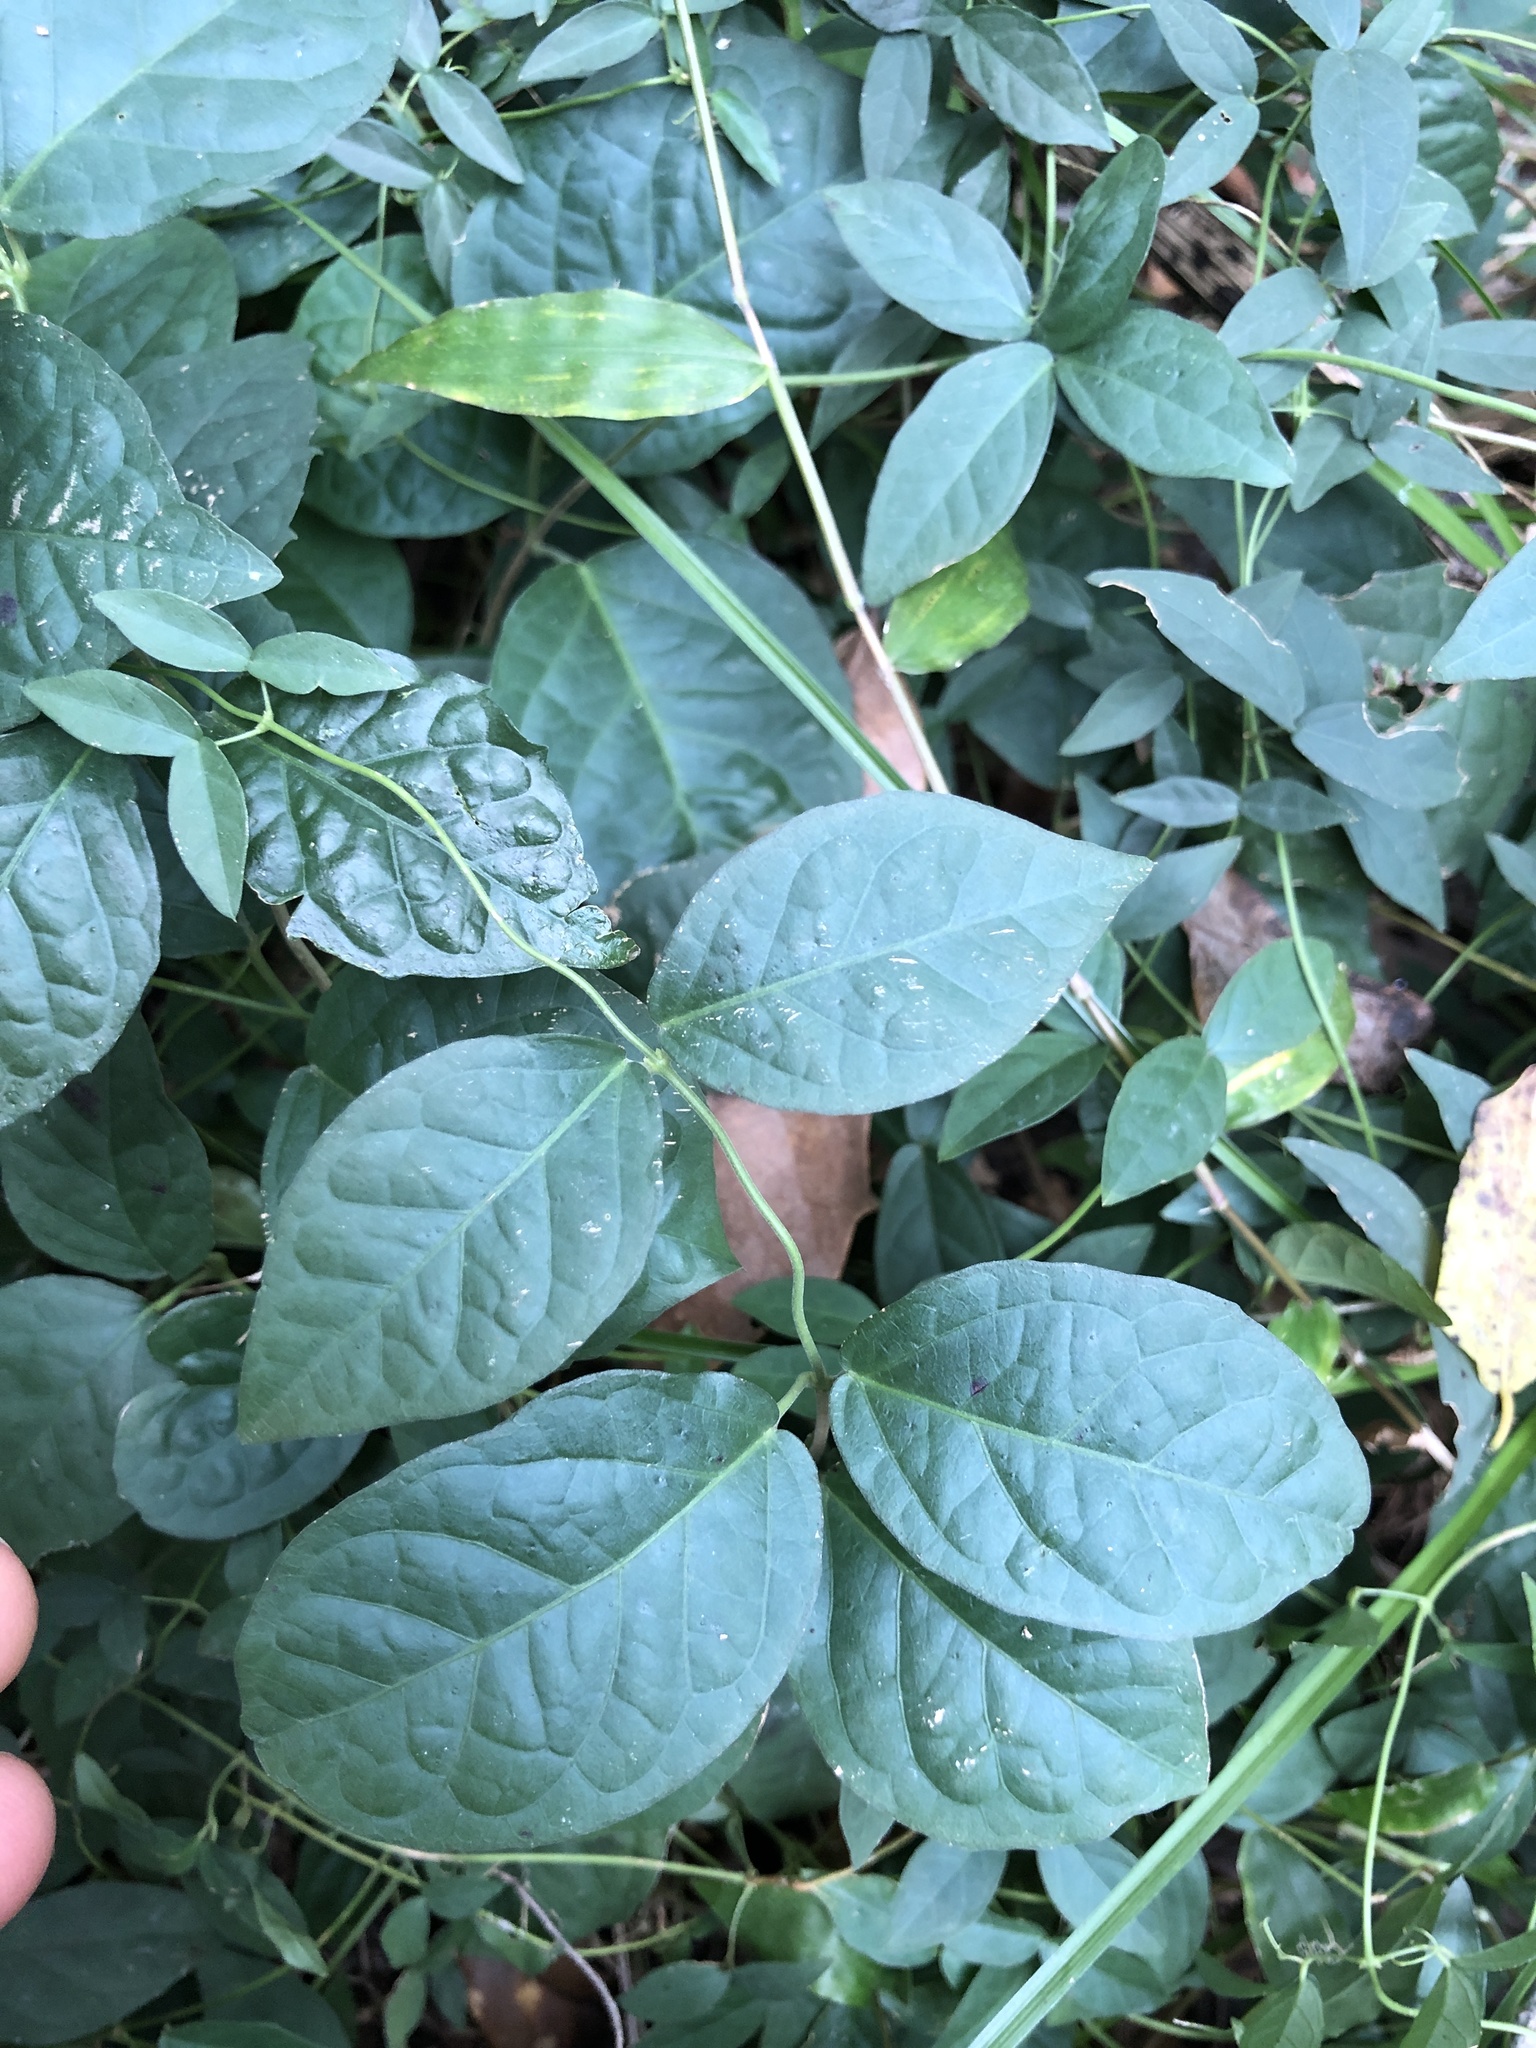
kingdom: Plantae
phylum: Tracheophyta
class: Magnoliopsida
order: Lamiales
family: Bignoniaceae
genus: Dolichandra
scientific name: Dolichandra unguis-cati
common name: Catclaw vine
